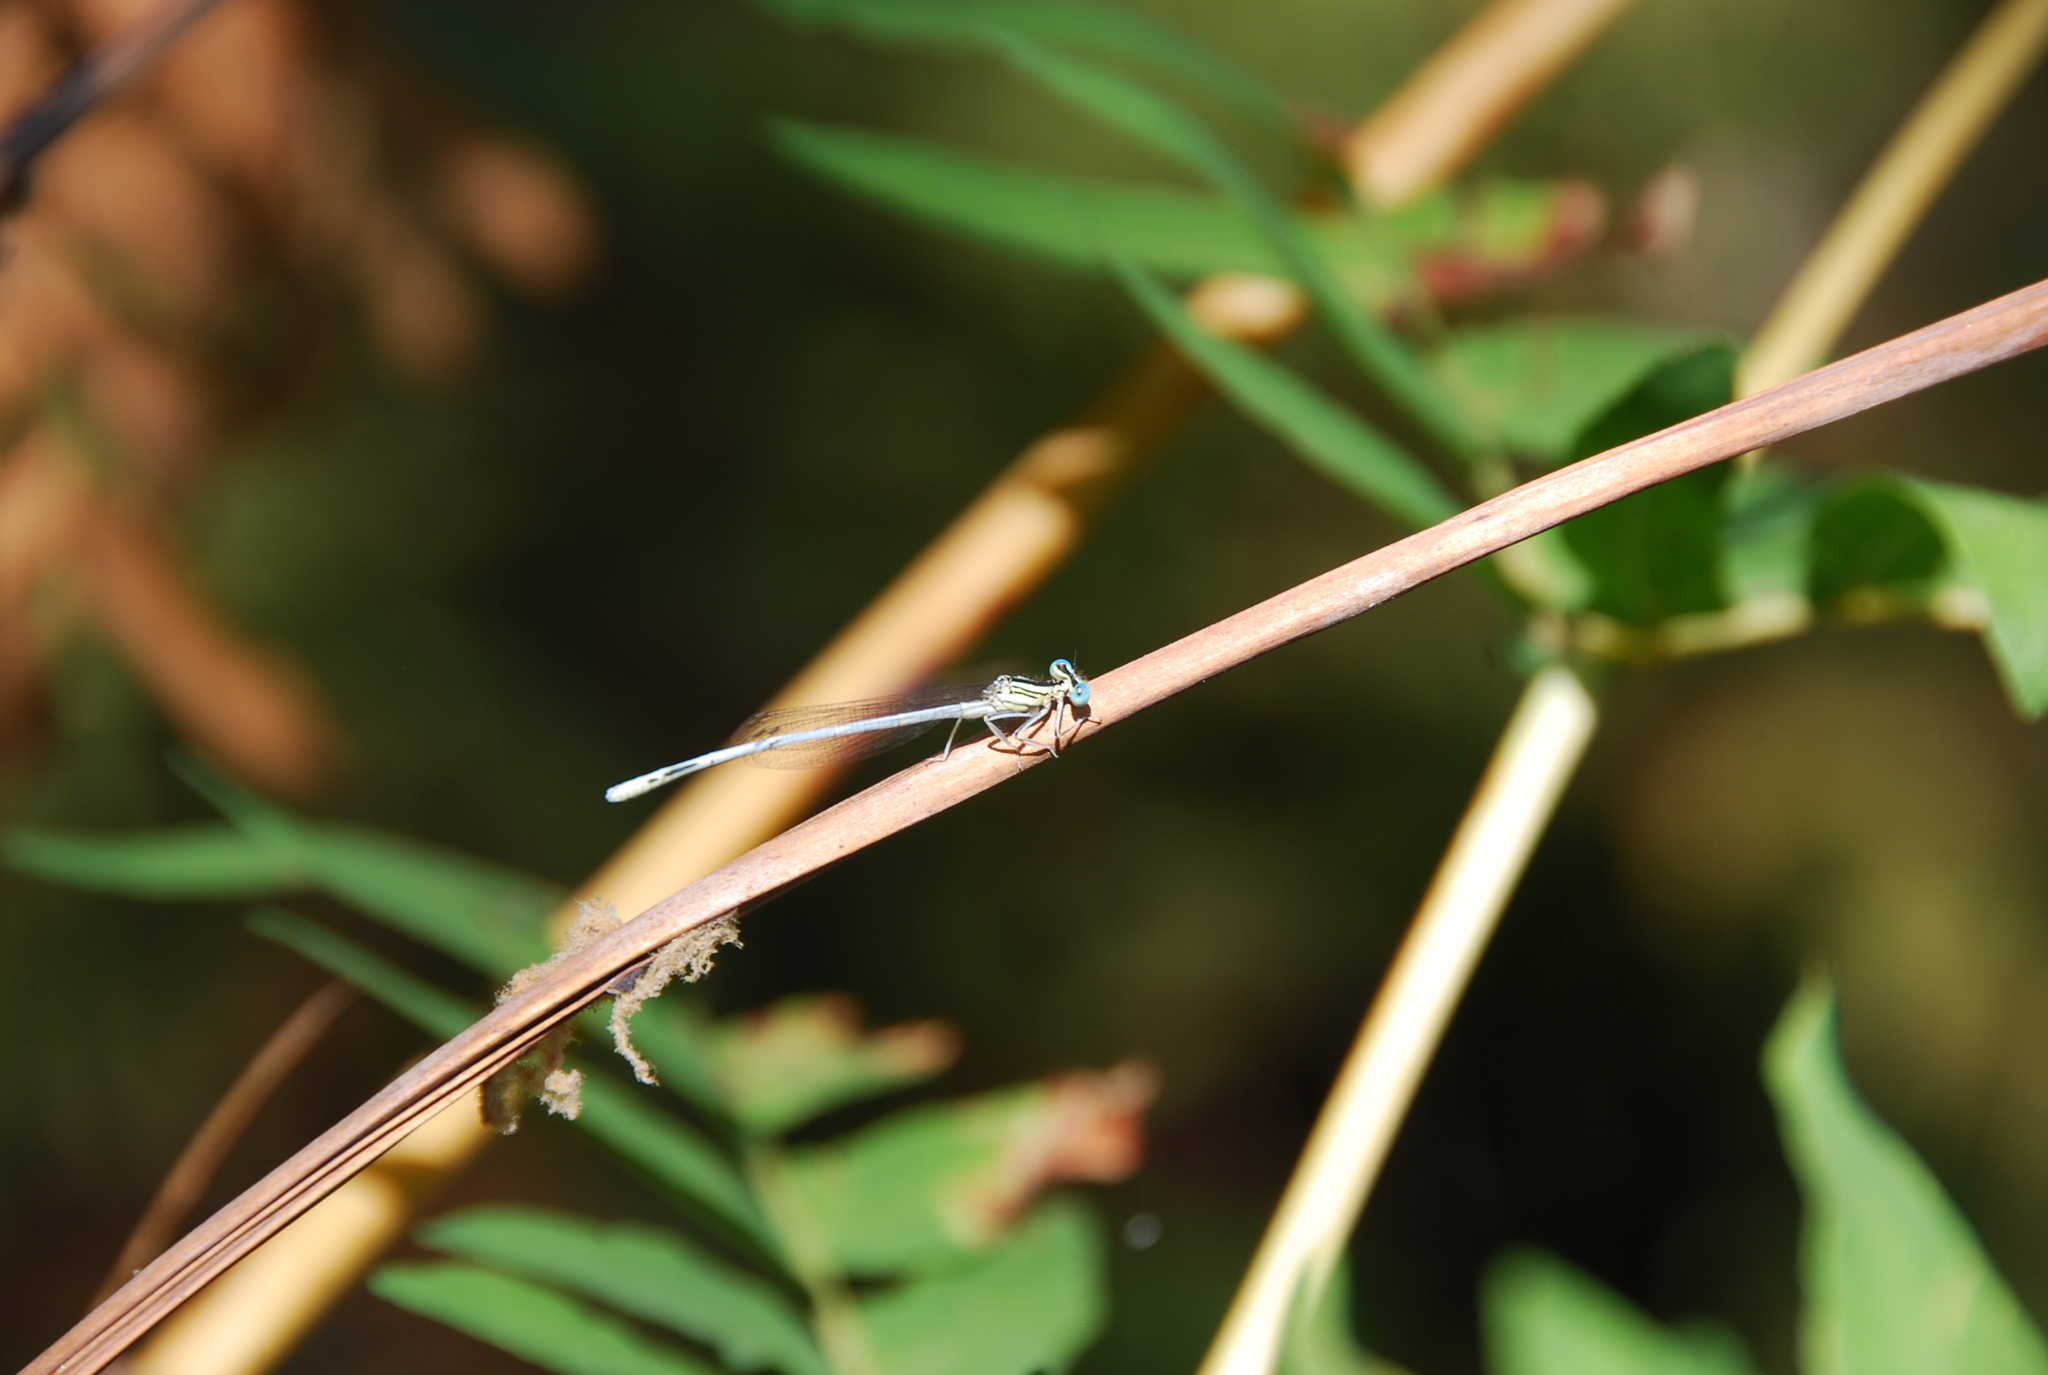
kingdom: Animalia
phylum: Arthropoda
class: Insecta
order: Odonata
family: Platycnemididae
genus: Platycnemis
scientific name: Platycnemis latipes
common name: White featherleg
